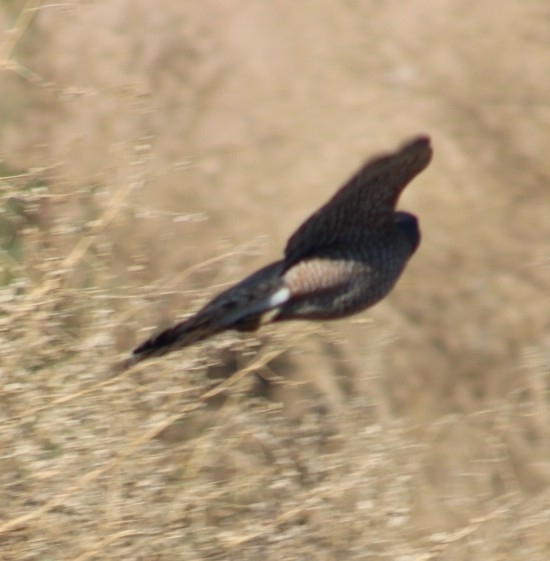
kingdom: Animalia
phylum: Chordata
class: Aves
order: Accipitriformes
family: Accipitridae
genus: Accipiter
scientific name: Accipiter cooperii
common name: Cooper's hawk
